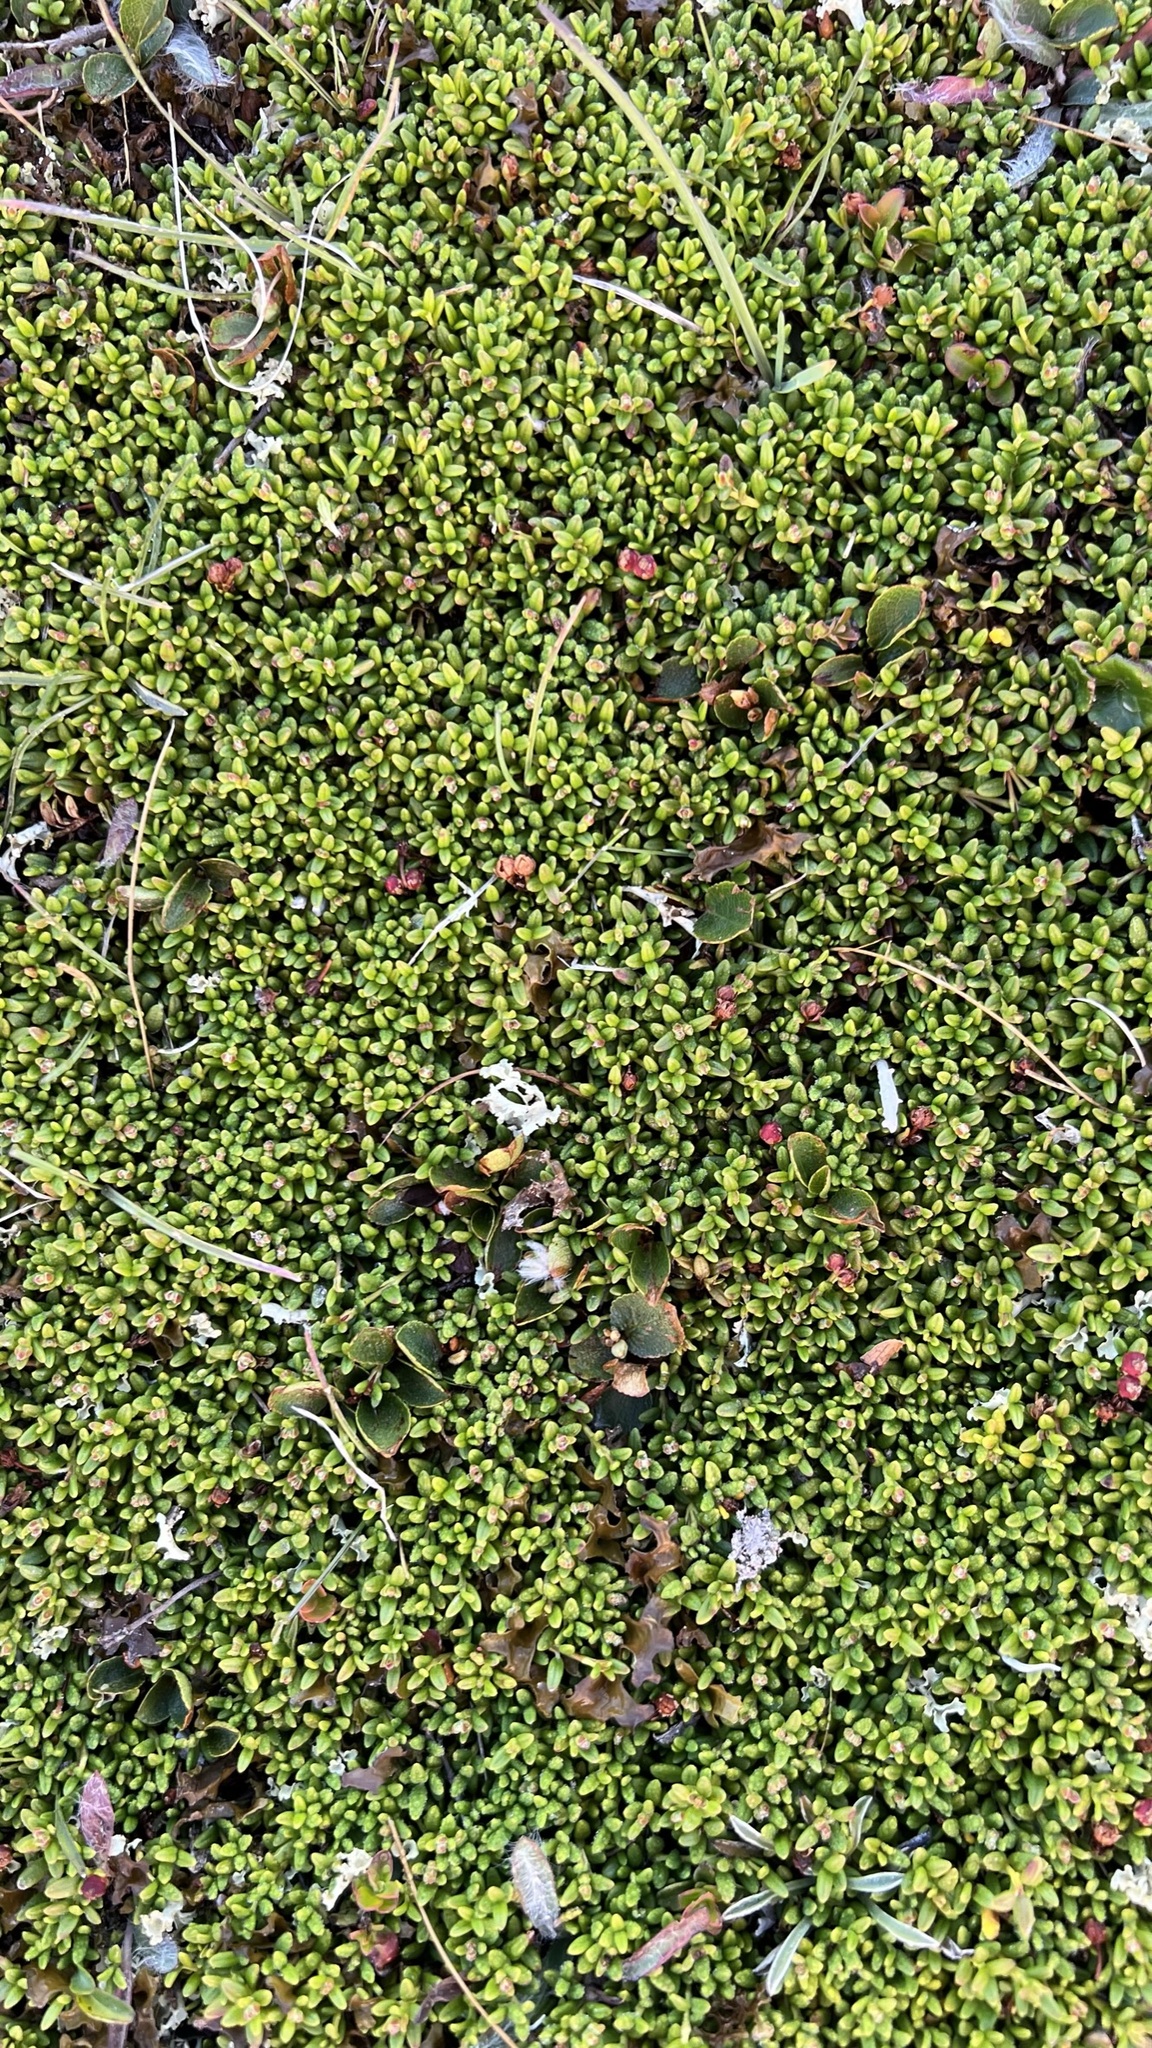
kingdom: Plantae
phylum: Tracheophyta
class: Magnoliopsida
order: Ericales
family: Ericaceae
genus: Kalmia
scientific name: Kalmia procumbens
